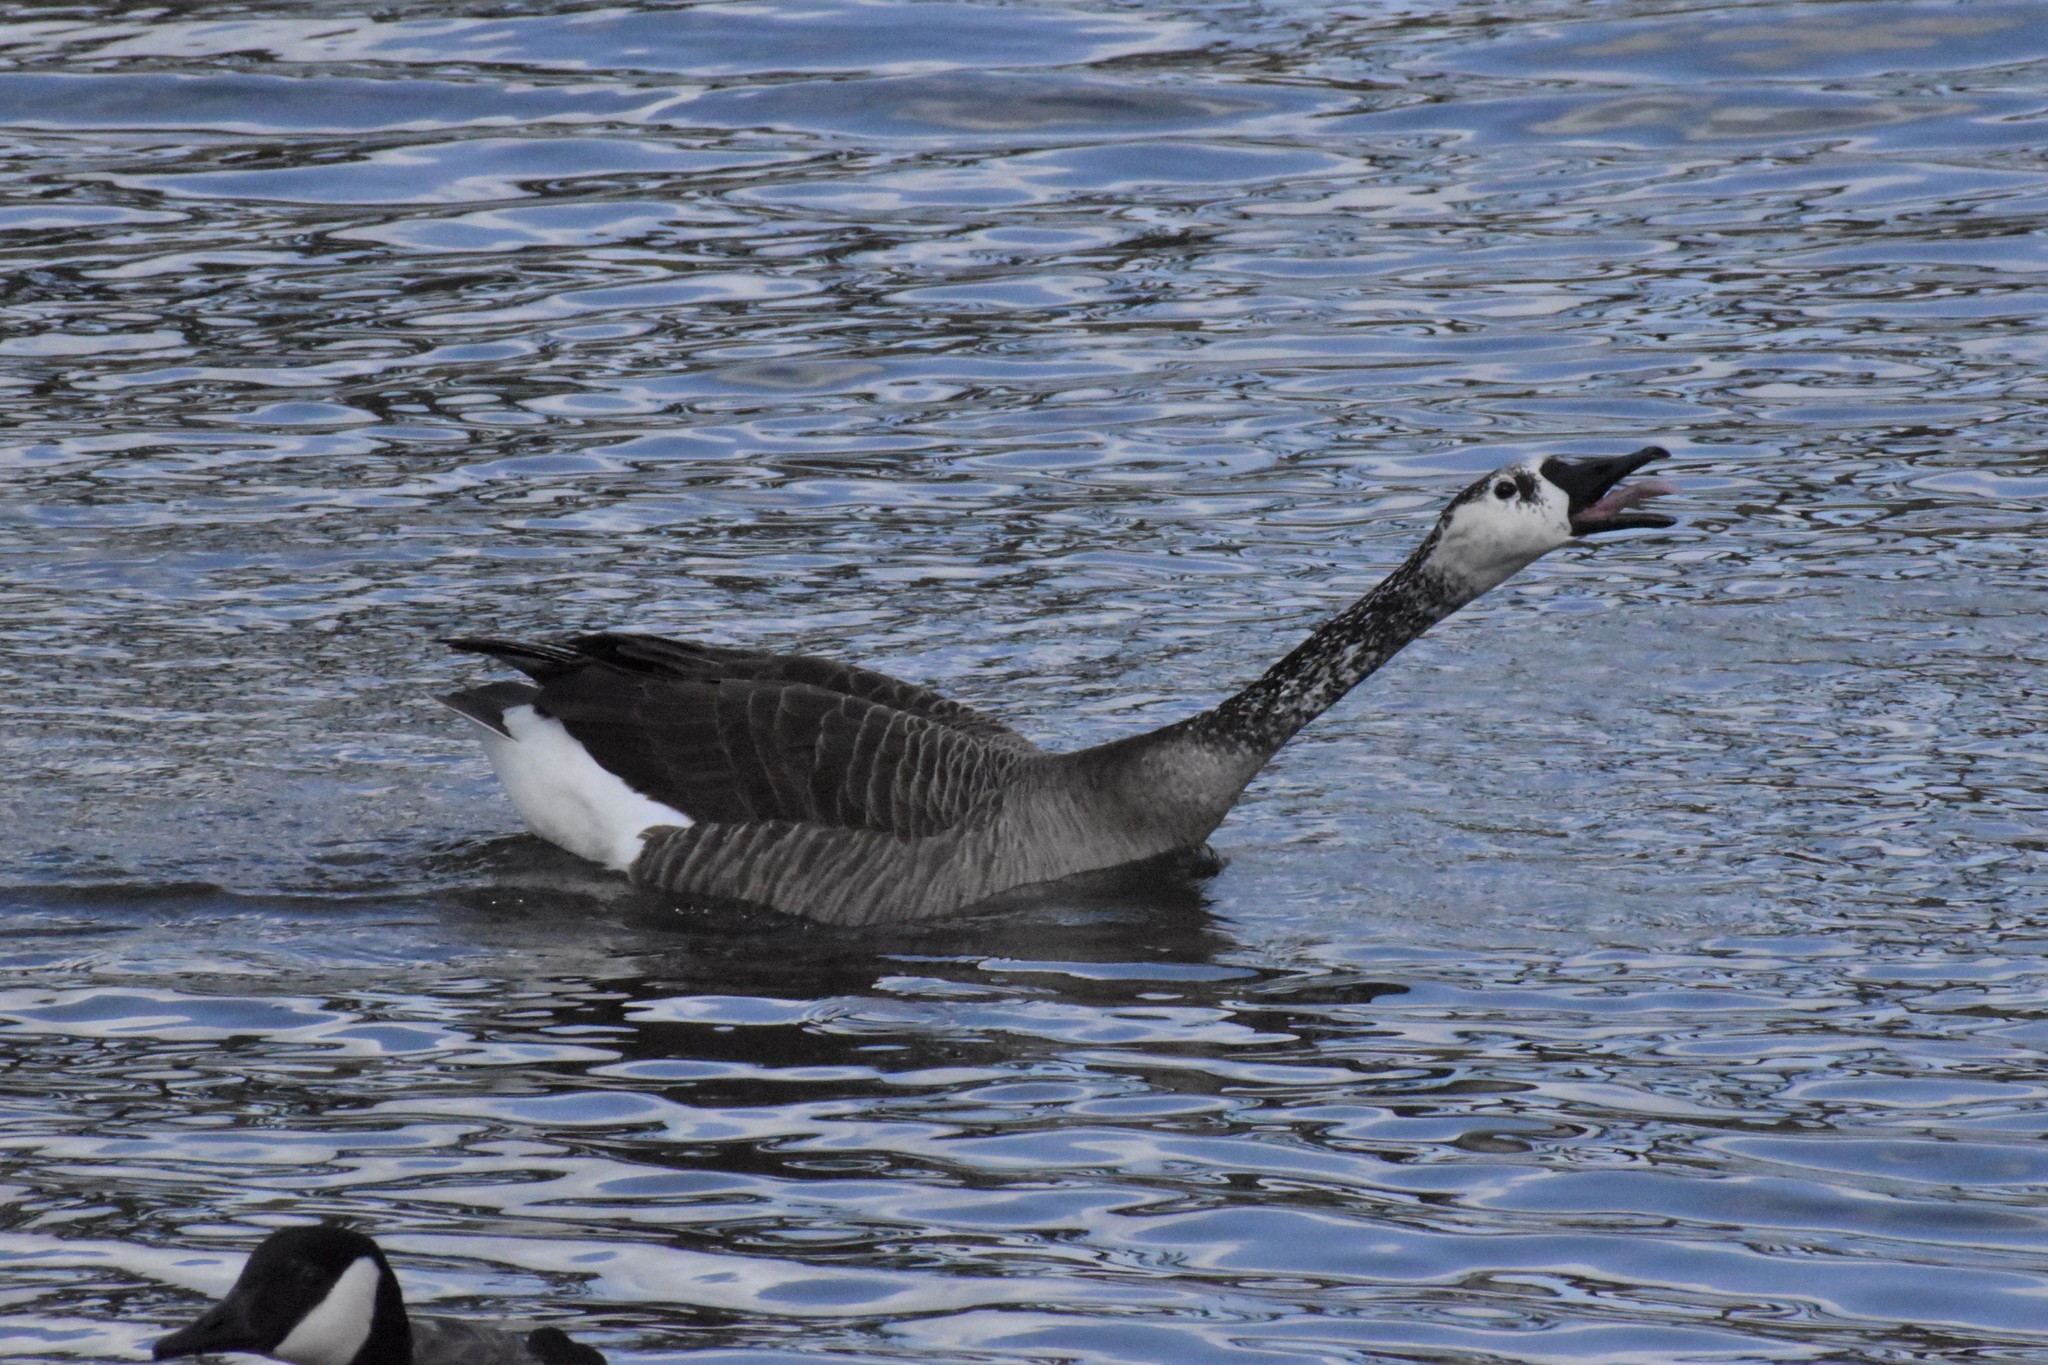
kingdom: Animalia
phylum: Chordata
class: Aves
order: Anseriformes
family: Anatidae
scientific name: Anatidae
